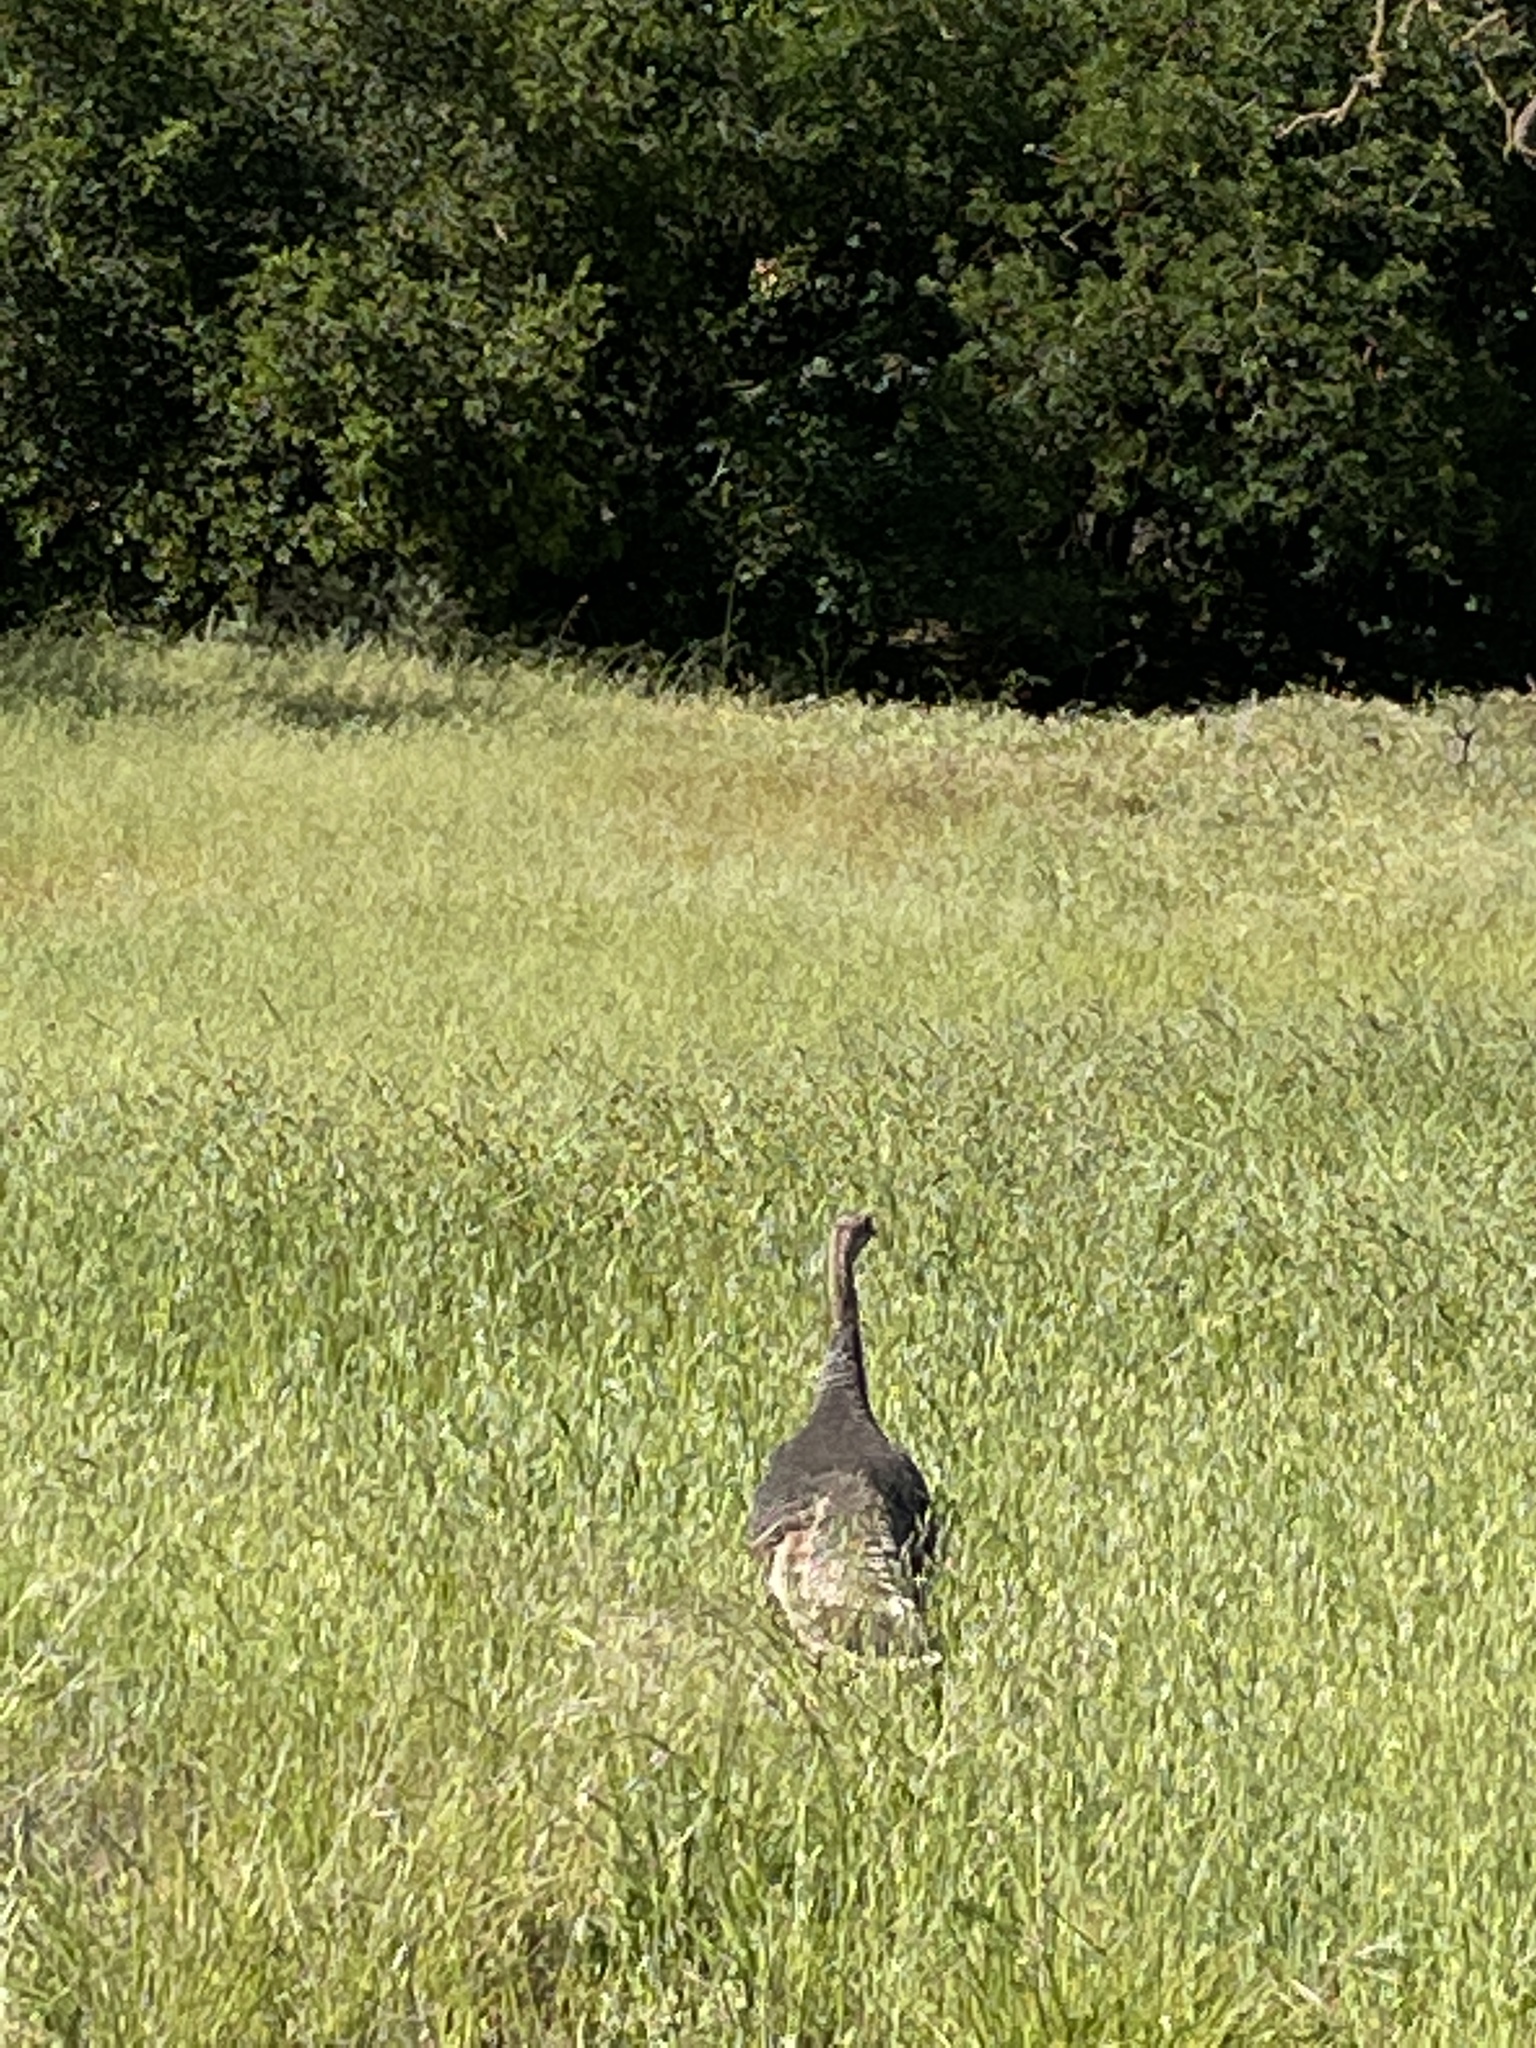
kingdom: Animalia
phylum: Chordata
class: Aves
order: Galliformes
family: Phasianidae
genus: Meleagris
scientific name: Meleagris gallopavo
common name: Wild turkey
